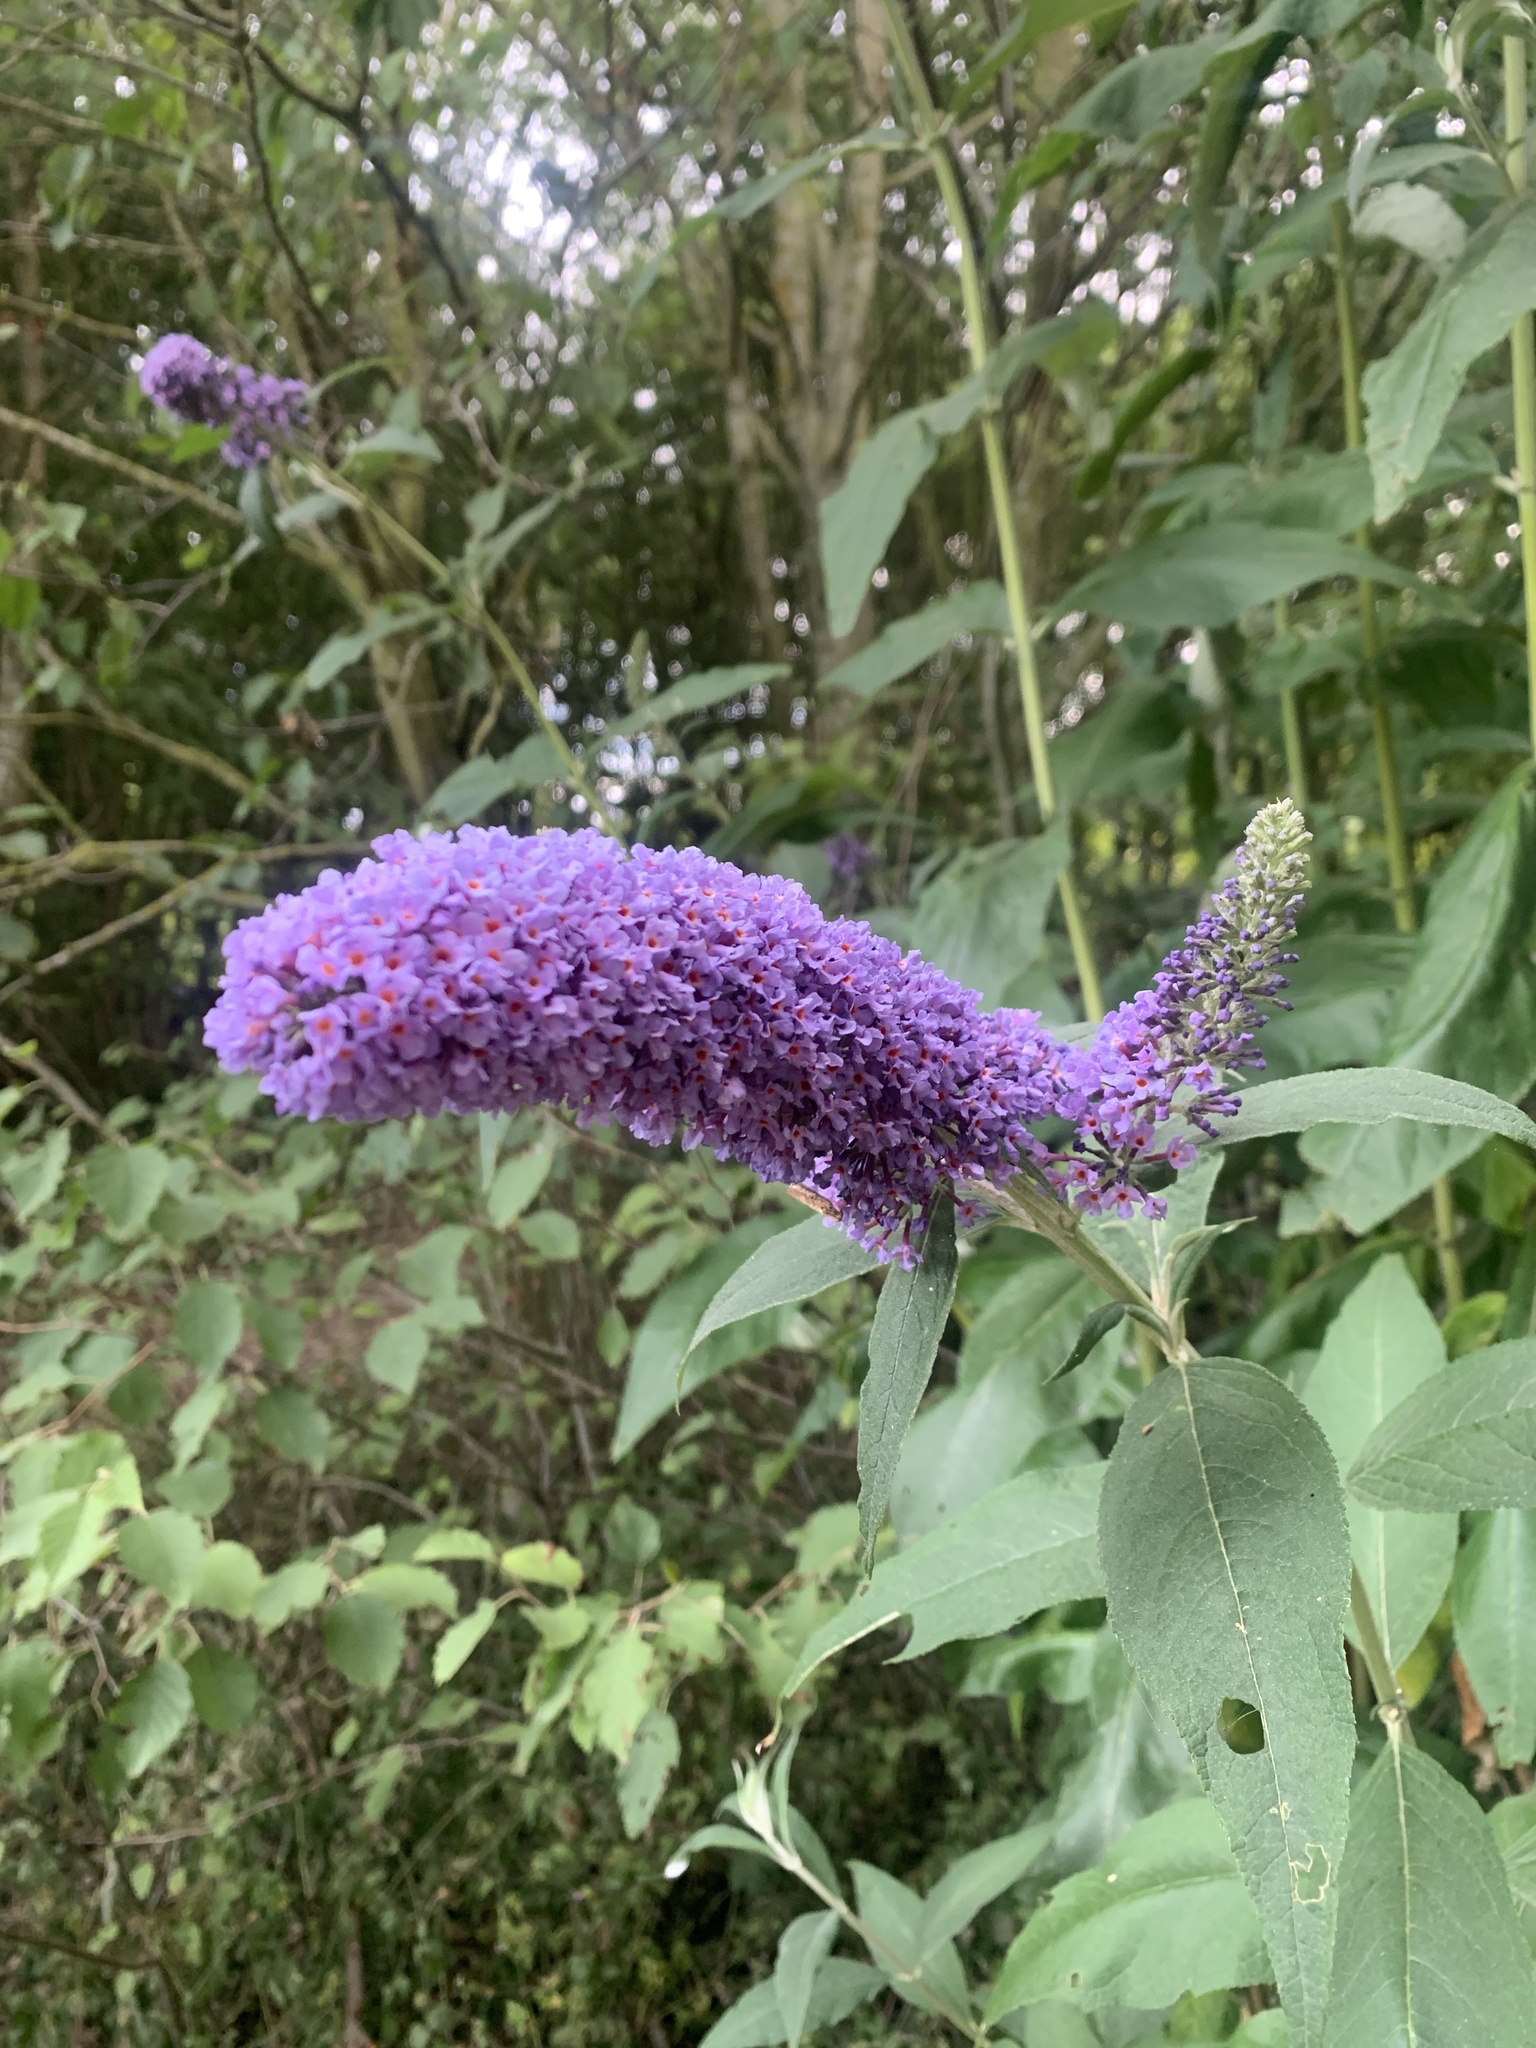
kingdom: Plantae
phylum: Tracheophyta
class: Magnoliopsida
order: Lamiales
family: Scrophulariaceae
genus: Buddleja
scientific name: Buddleja davidii
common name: Butterfly-bush
